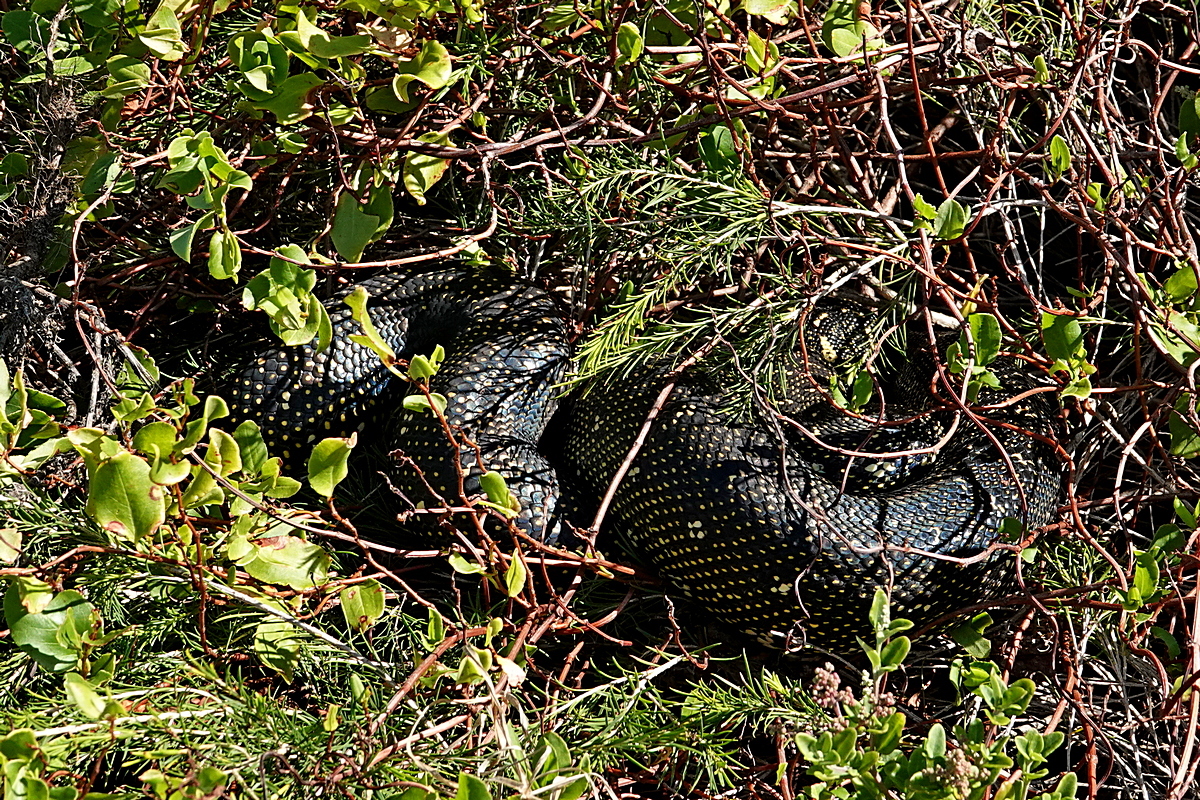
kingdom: Animalia
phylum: Chordata
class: Squamata
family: Pythonidae
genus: Morelia
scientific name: Morelia spilota
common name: Carpet python
